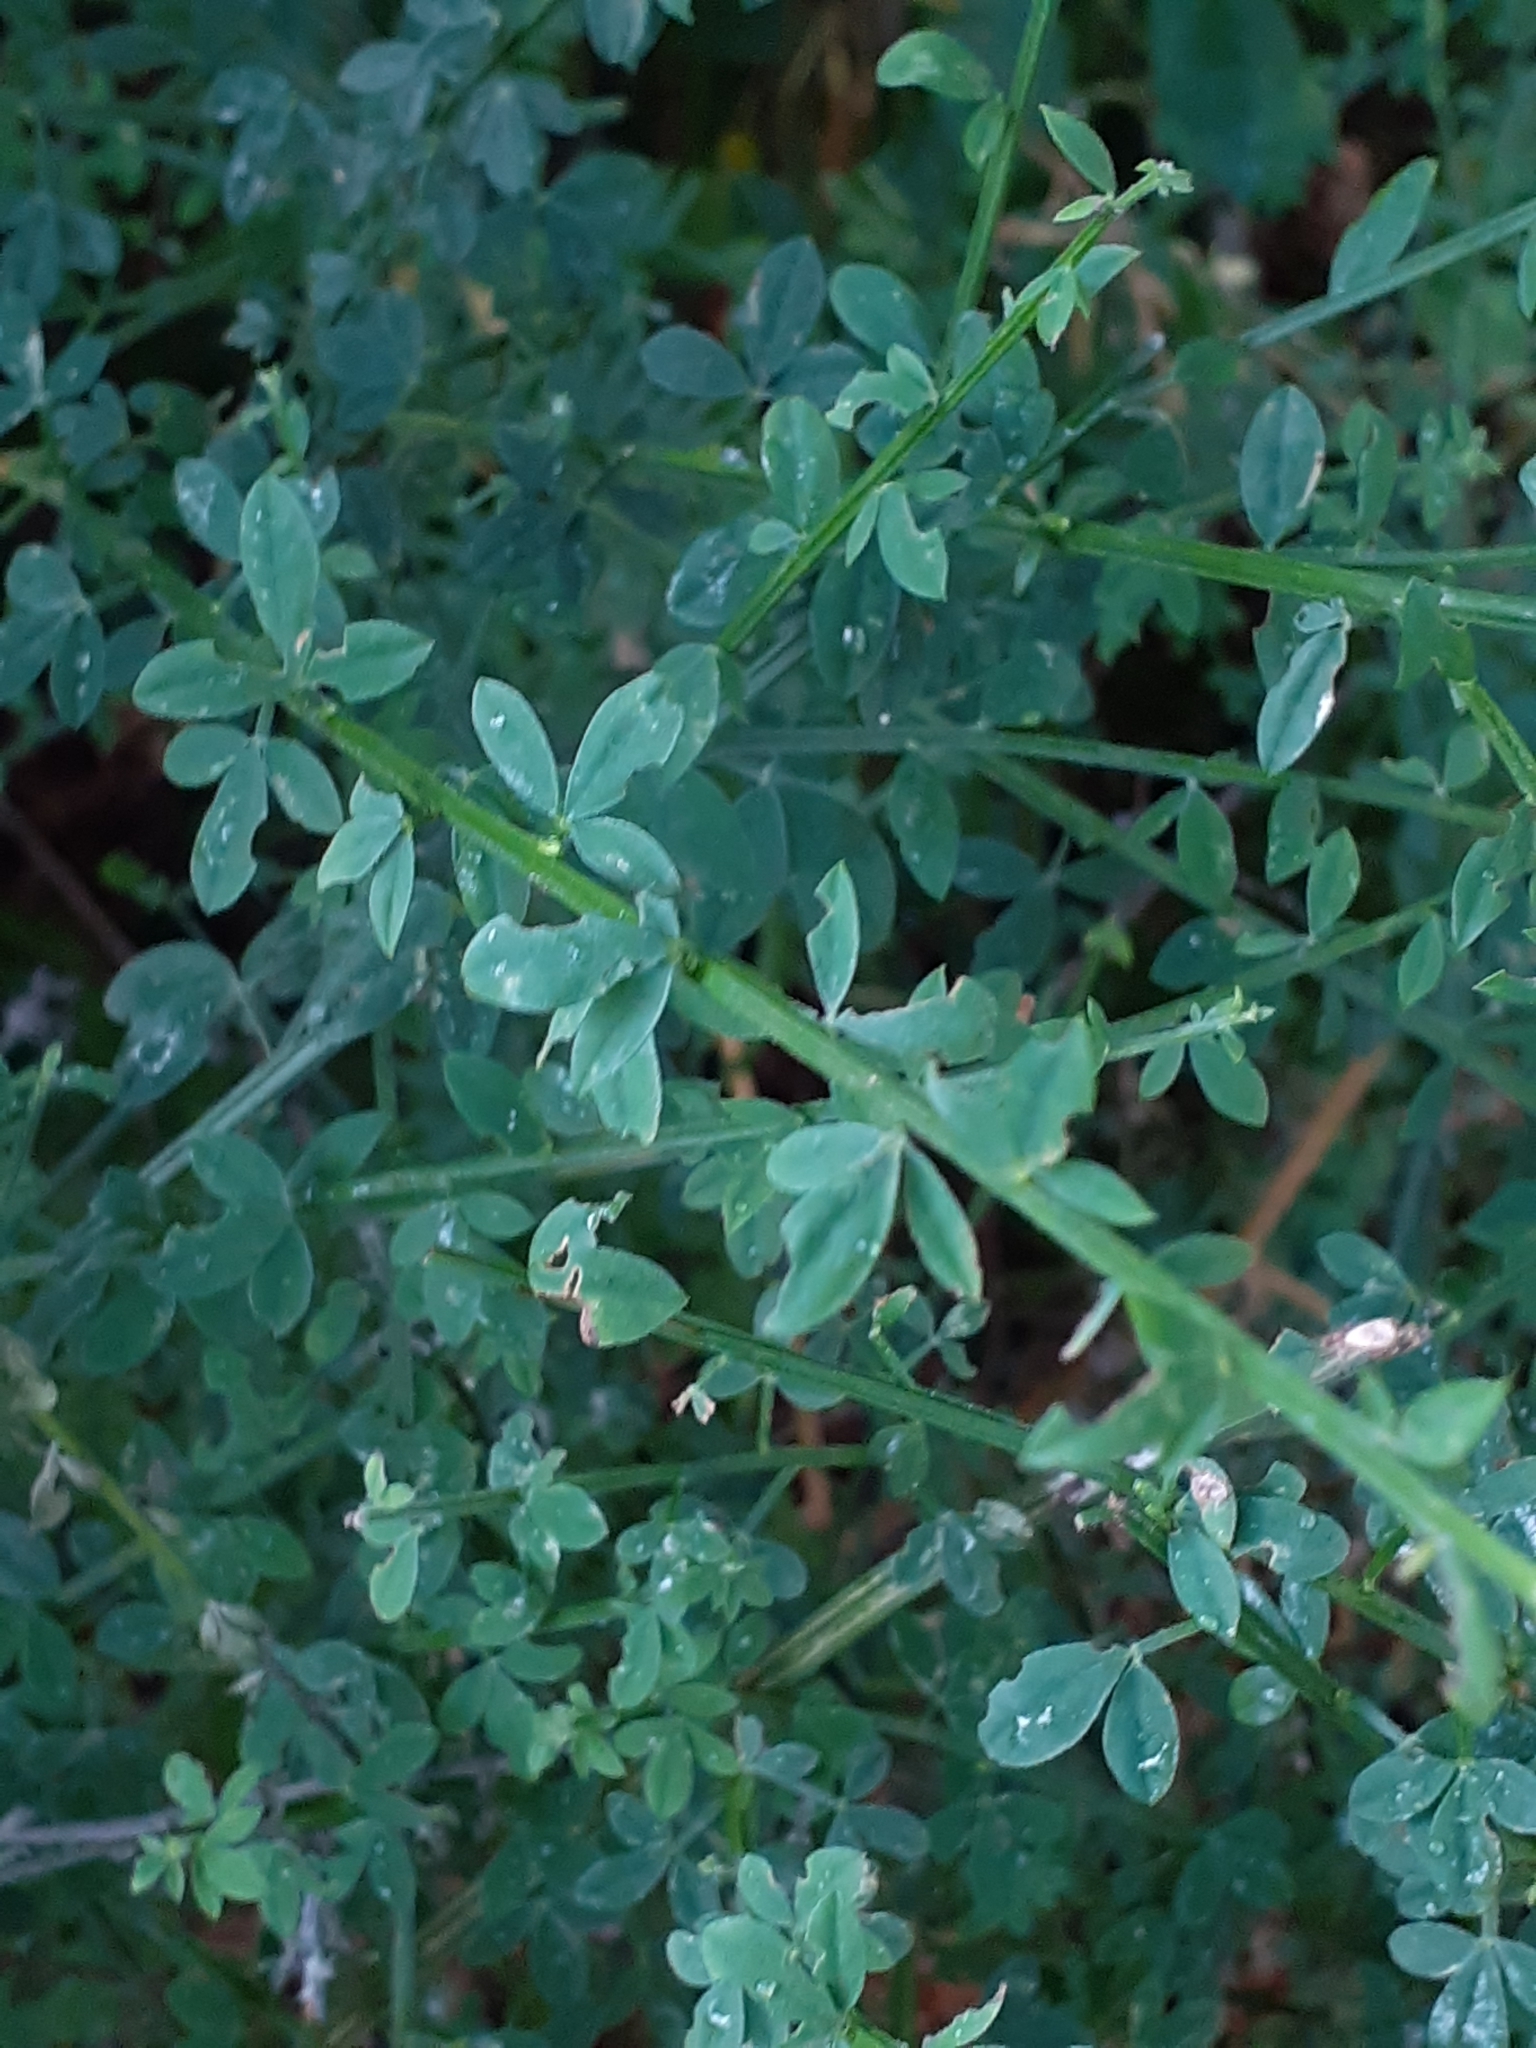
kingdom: Plantae
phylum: Tracheophyta
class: Magnoliopsida
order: Fabales
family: Fabaceae
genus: Cytisus
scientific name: Cytisus scoparius
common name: Scotch broom
